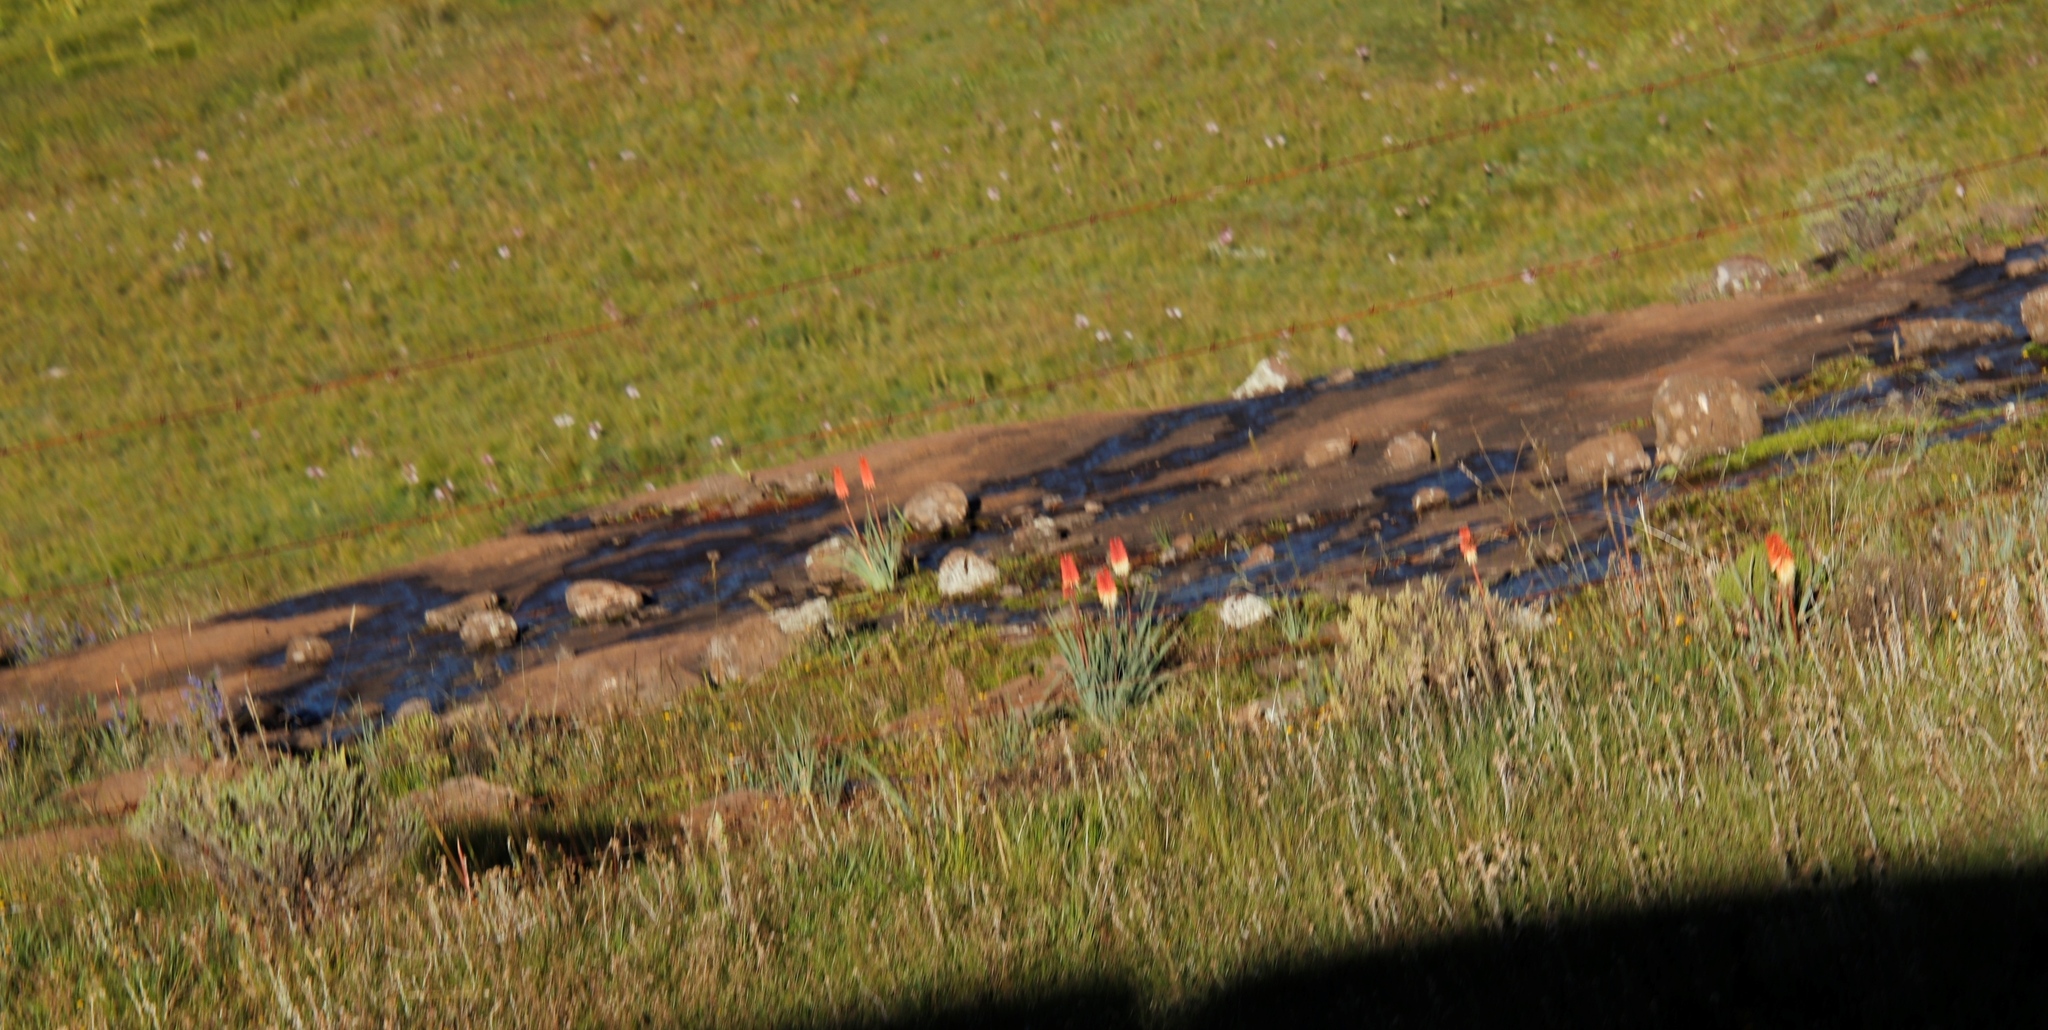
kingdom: Plantae
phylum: Tracheophyta
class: Liliopsida
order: Asparagales
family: Asphodelaceae
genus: Kniphofia
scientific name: Kniphofia caulescens
